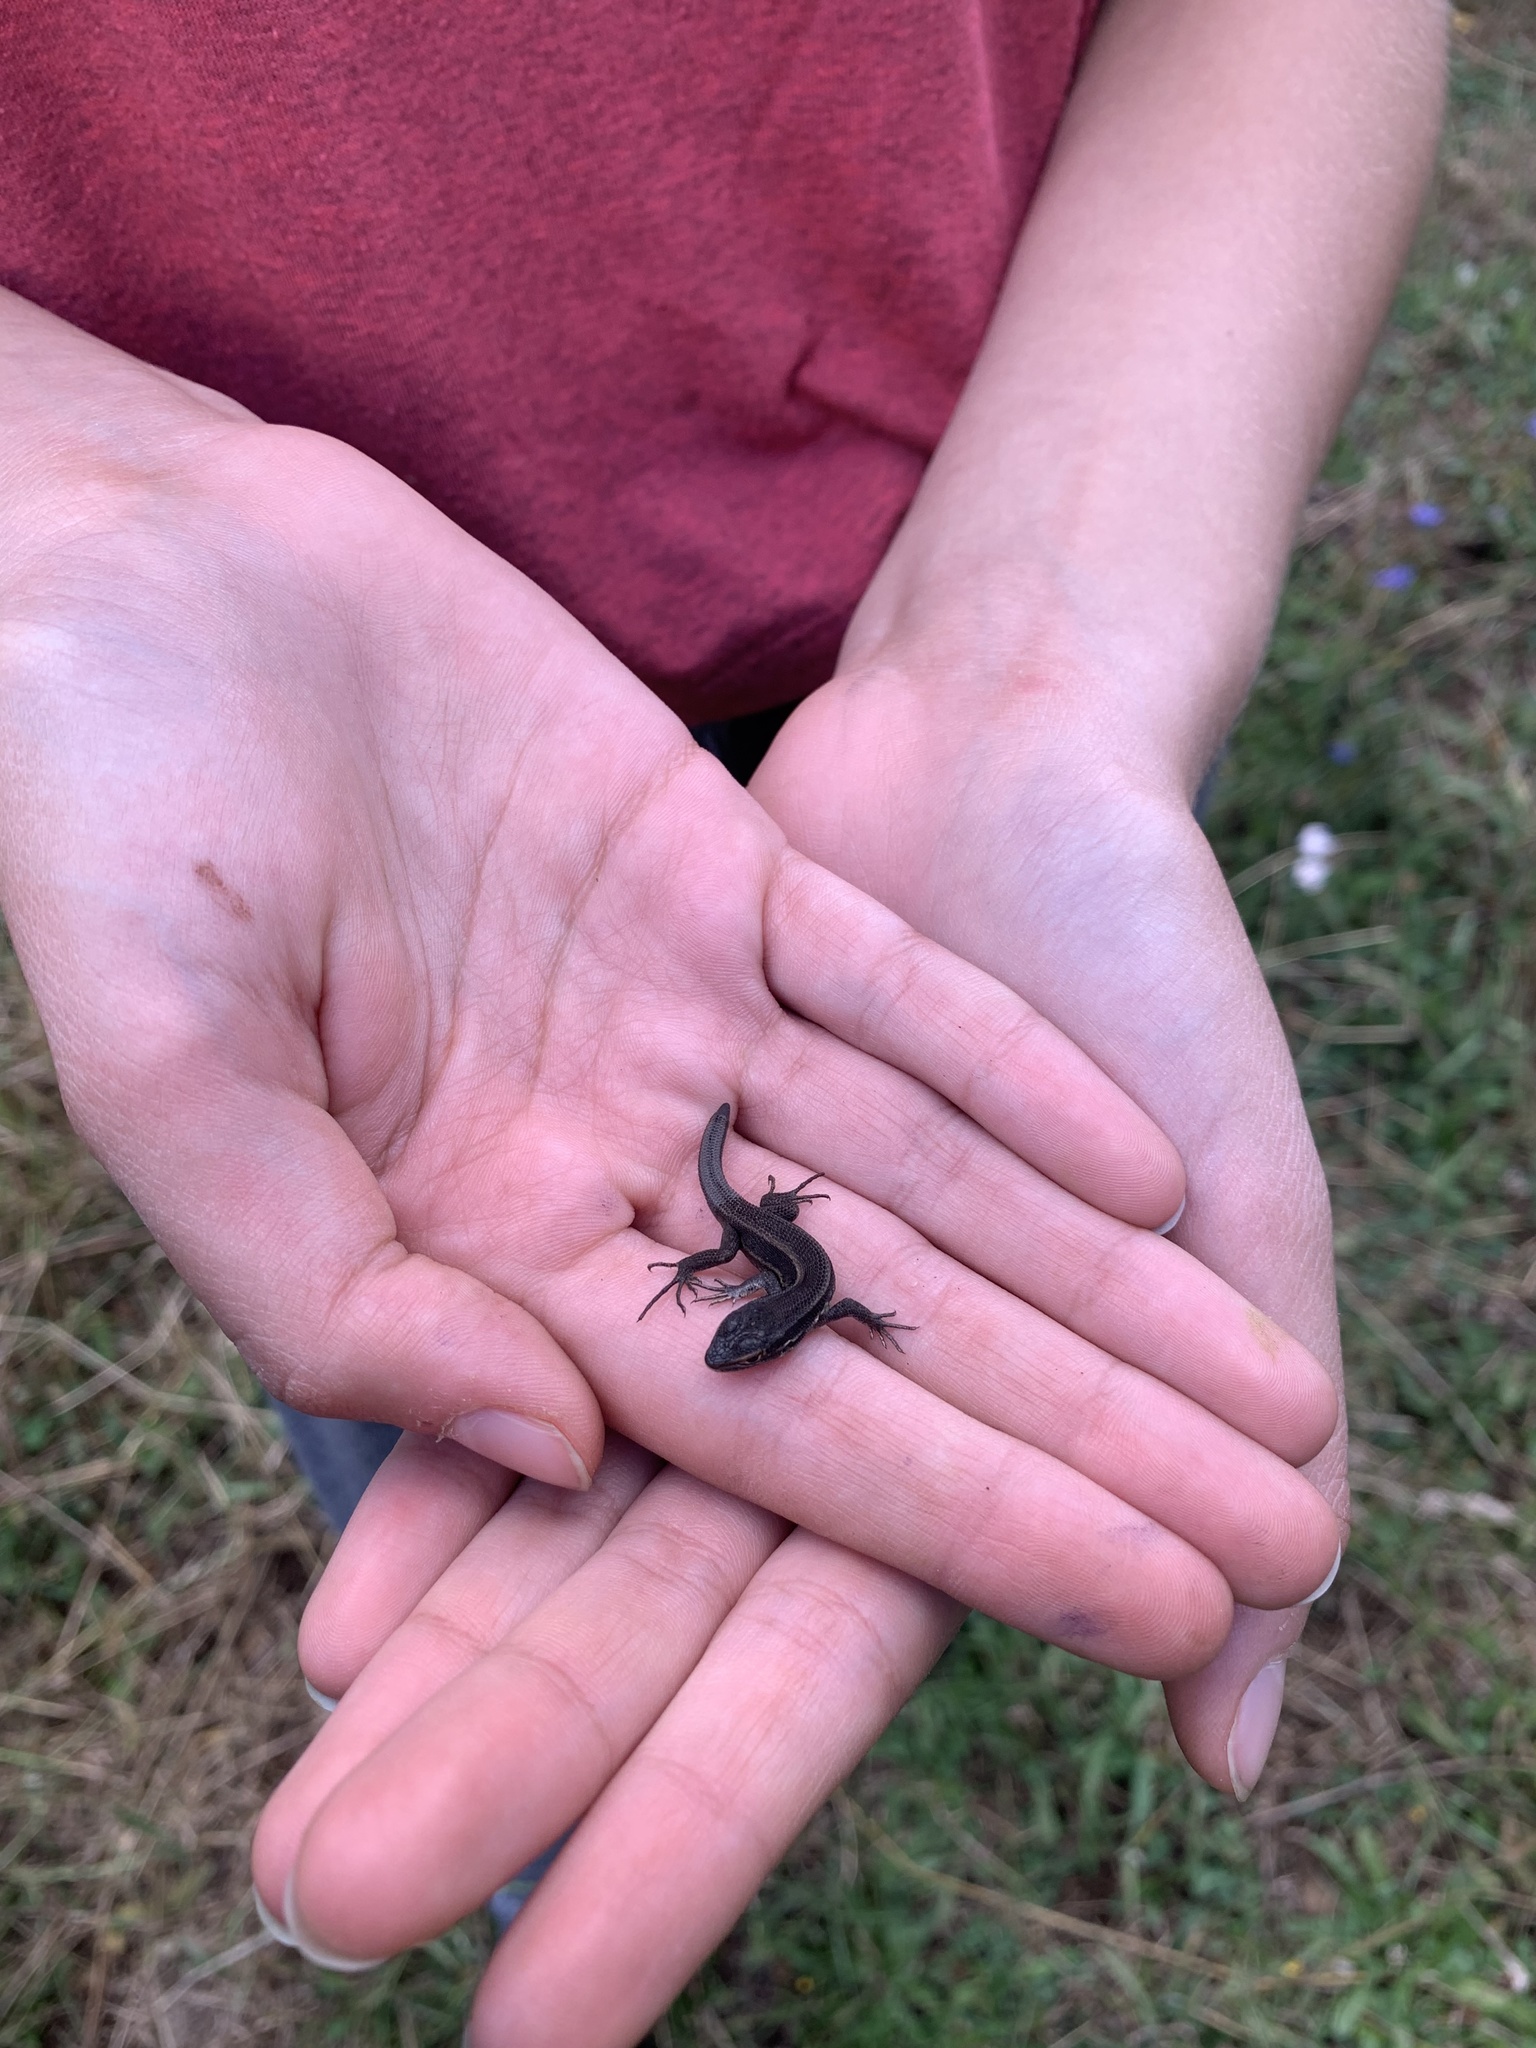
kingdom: Animalia
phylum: Chordata
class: Squamata
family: Liolaemidae
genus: Liolaemus
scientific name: Liolaemus cyanogaster
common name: Cyan tree iguana
